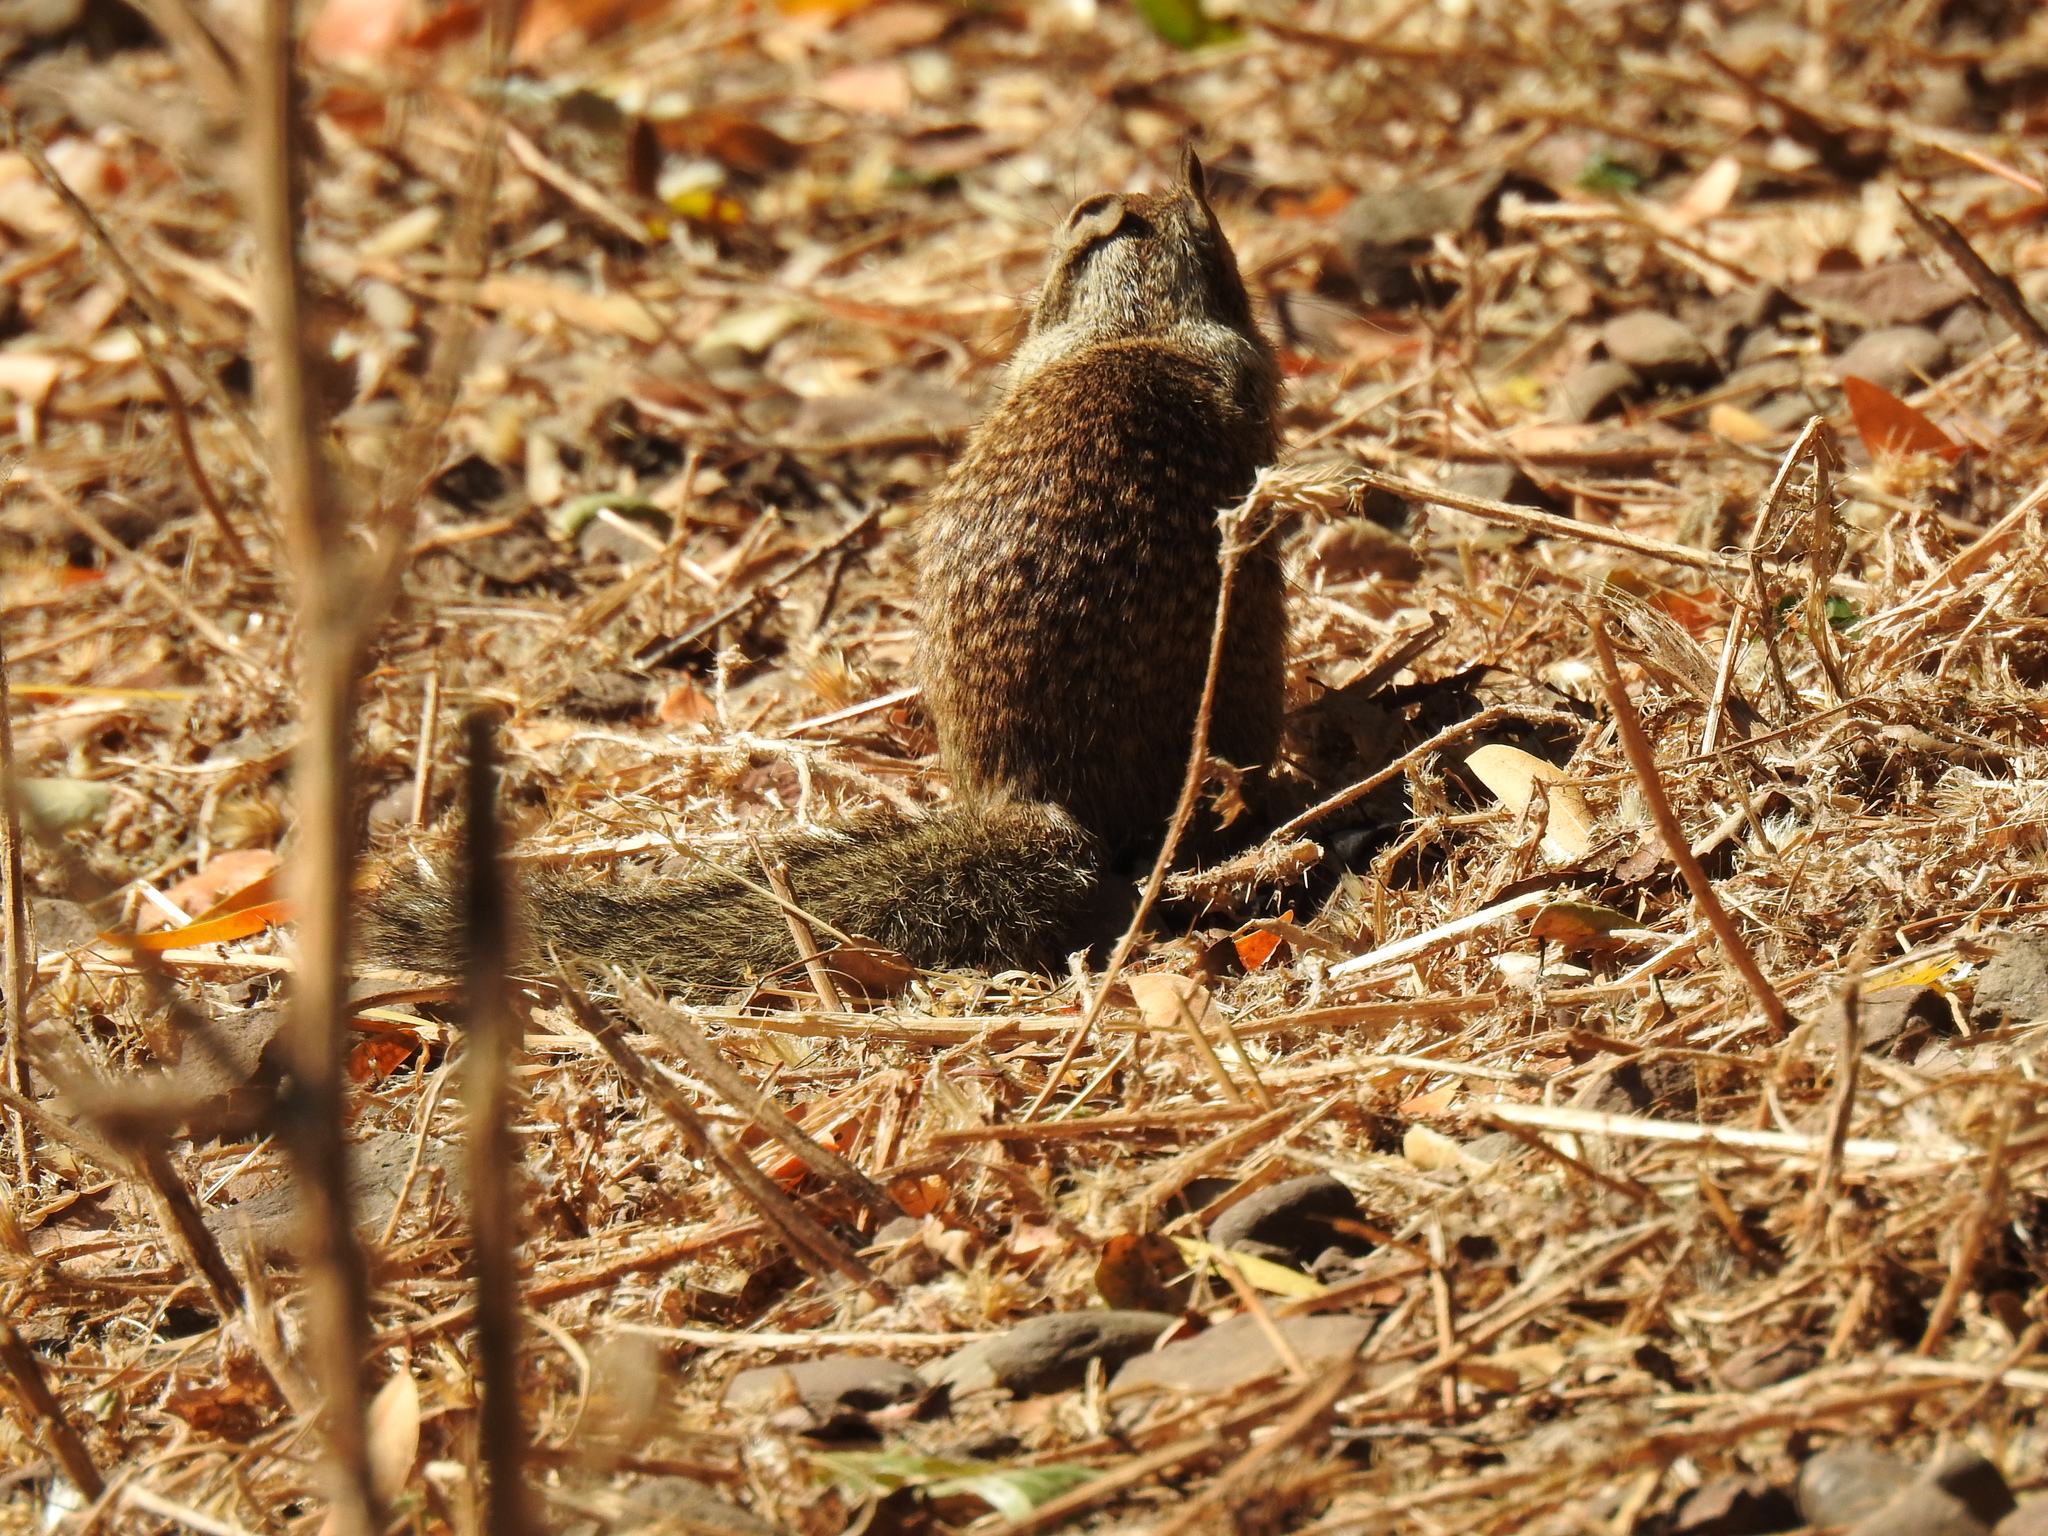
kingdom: Animalia
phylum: Chordata
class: Mammalia
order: Rodentia
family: Sciuridae
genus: Otospermophilus
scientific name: Otospermophilus beecheyi
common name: California ground squirrel
